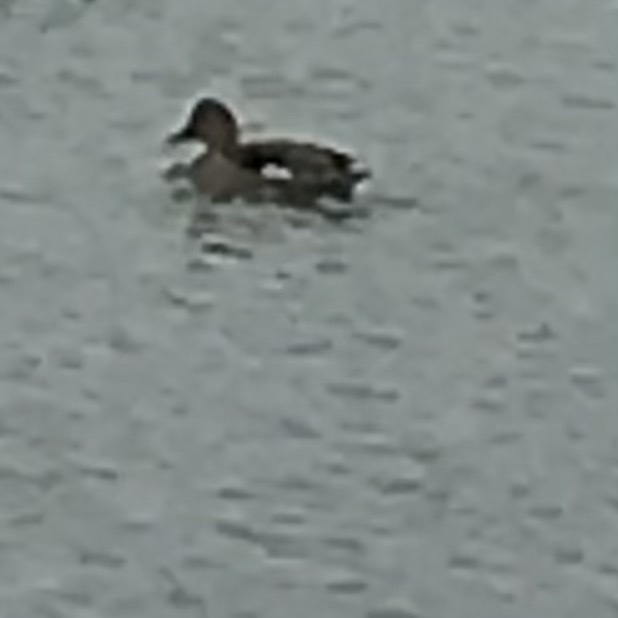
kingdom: Animalia
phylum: Chordata
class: Aves
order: Anseriformes
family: Anatidae
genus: Mareca
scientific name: Mareca strepera
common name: Gadwall
